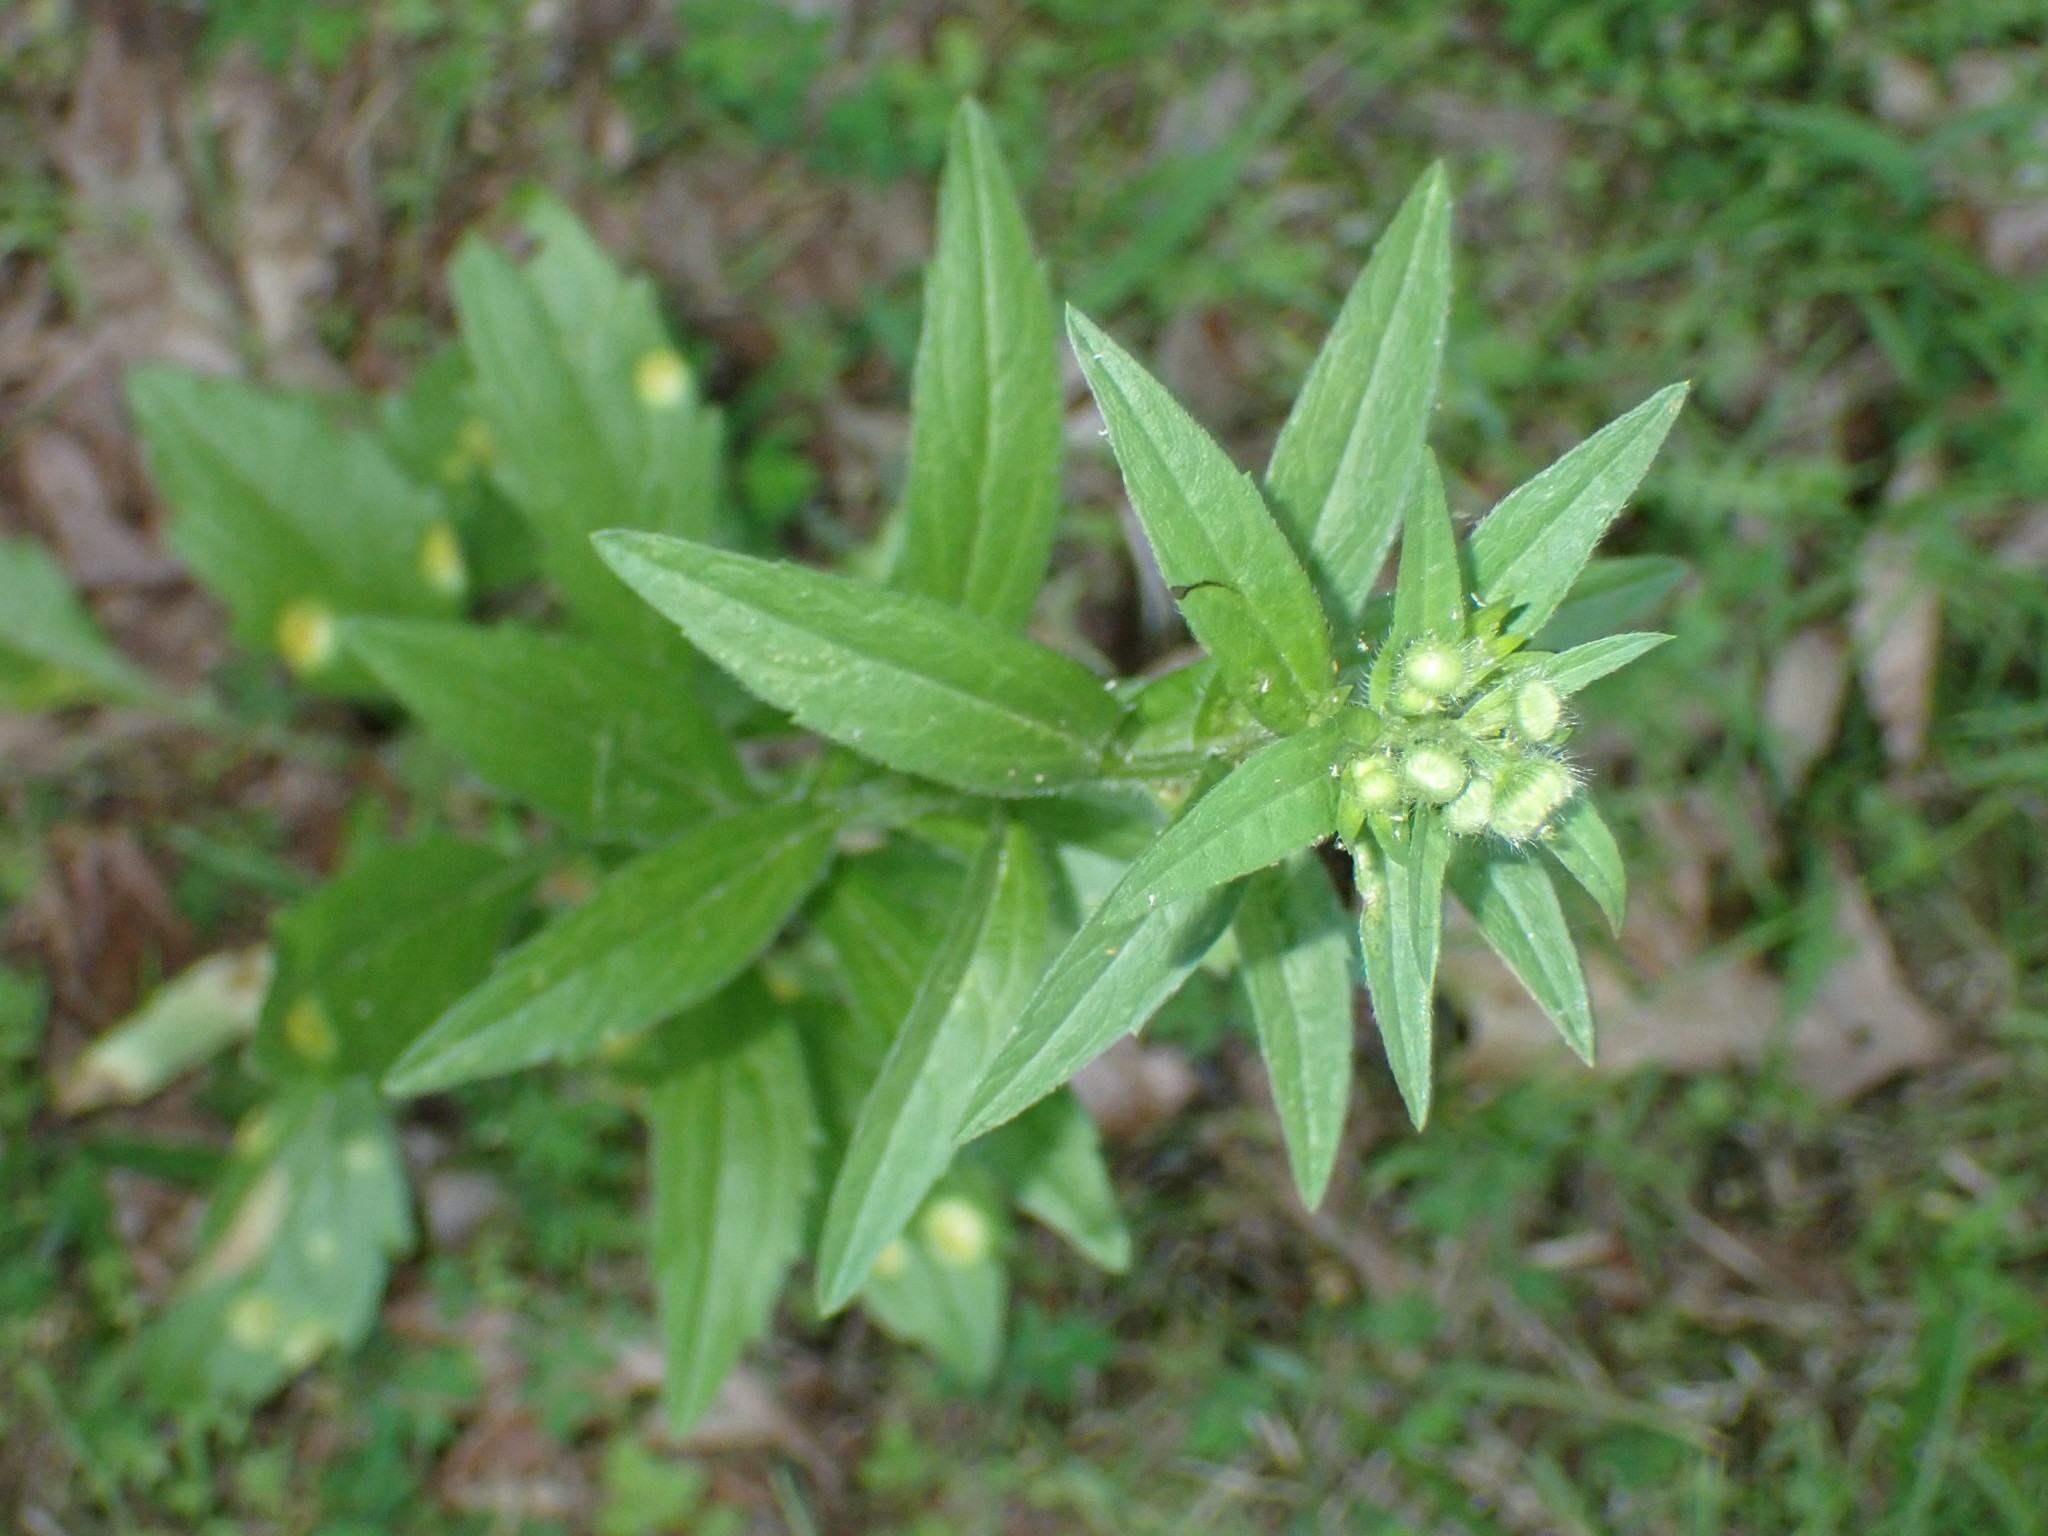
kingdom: Plantae
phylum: Tracheophyta
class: Magnoliopsida
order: Asterales
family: Asteraceae
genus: Erigeron
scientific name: Erigeron annuus
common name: Tall fleabane
